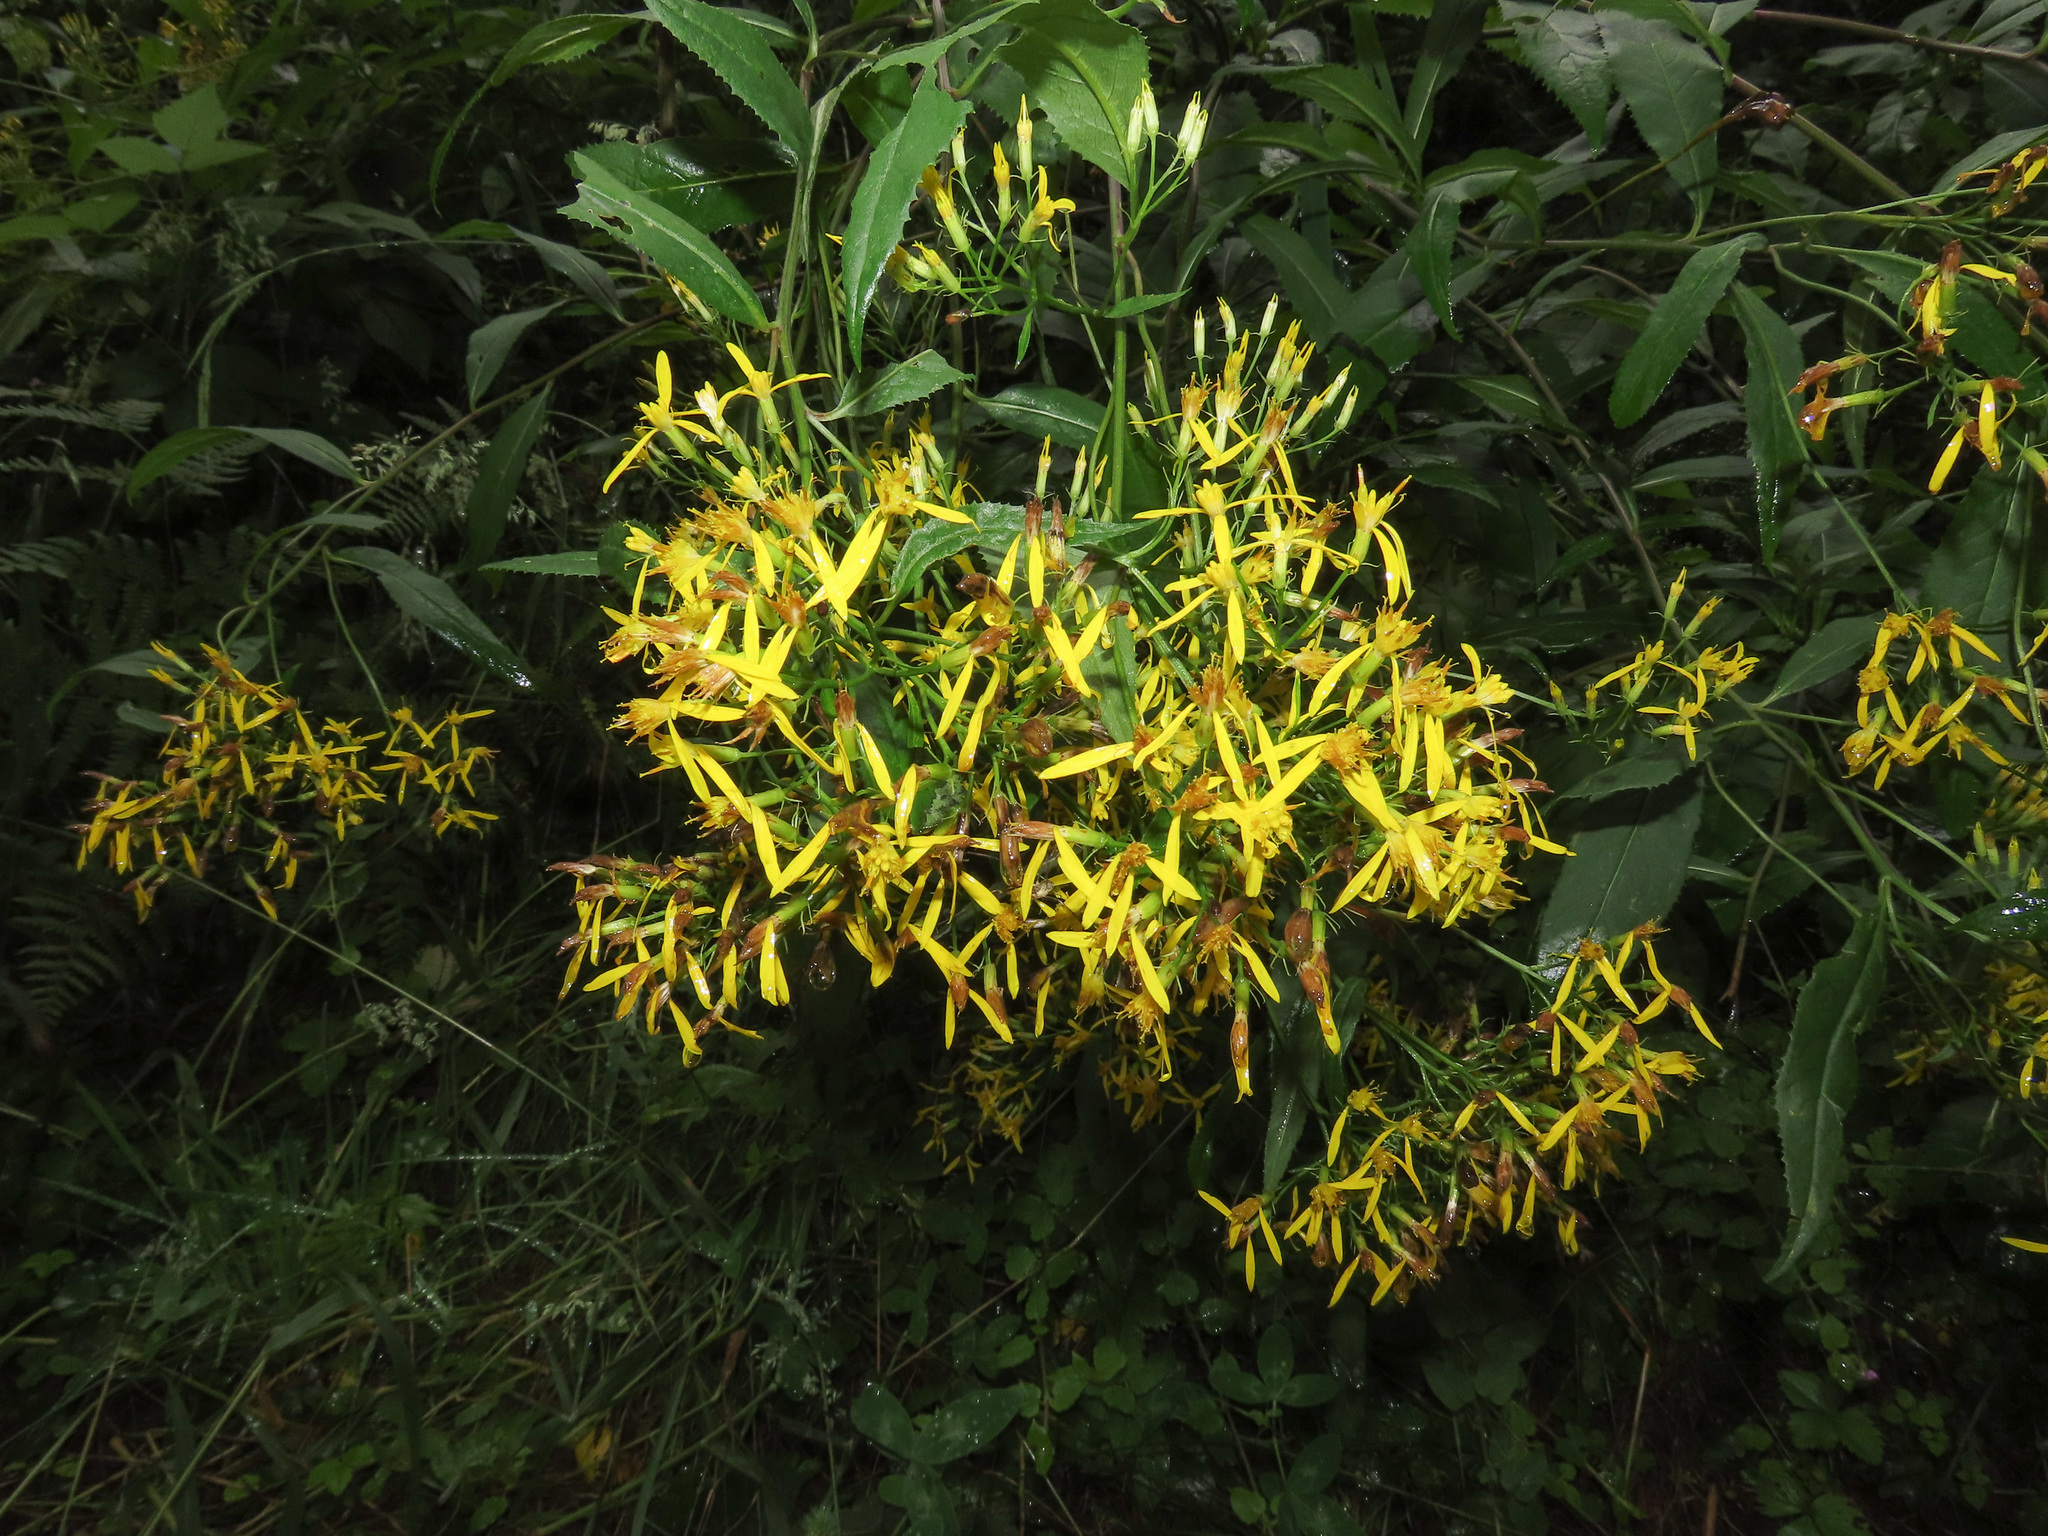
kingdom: Plantae
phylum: Tracheophyta
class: Magnoliopsida
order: Asterales
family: Asteraceae
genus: Senecio
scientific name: Senecio ovatus
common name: Wood ragwort
